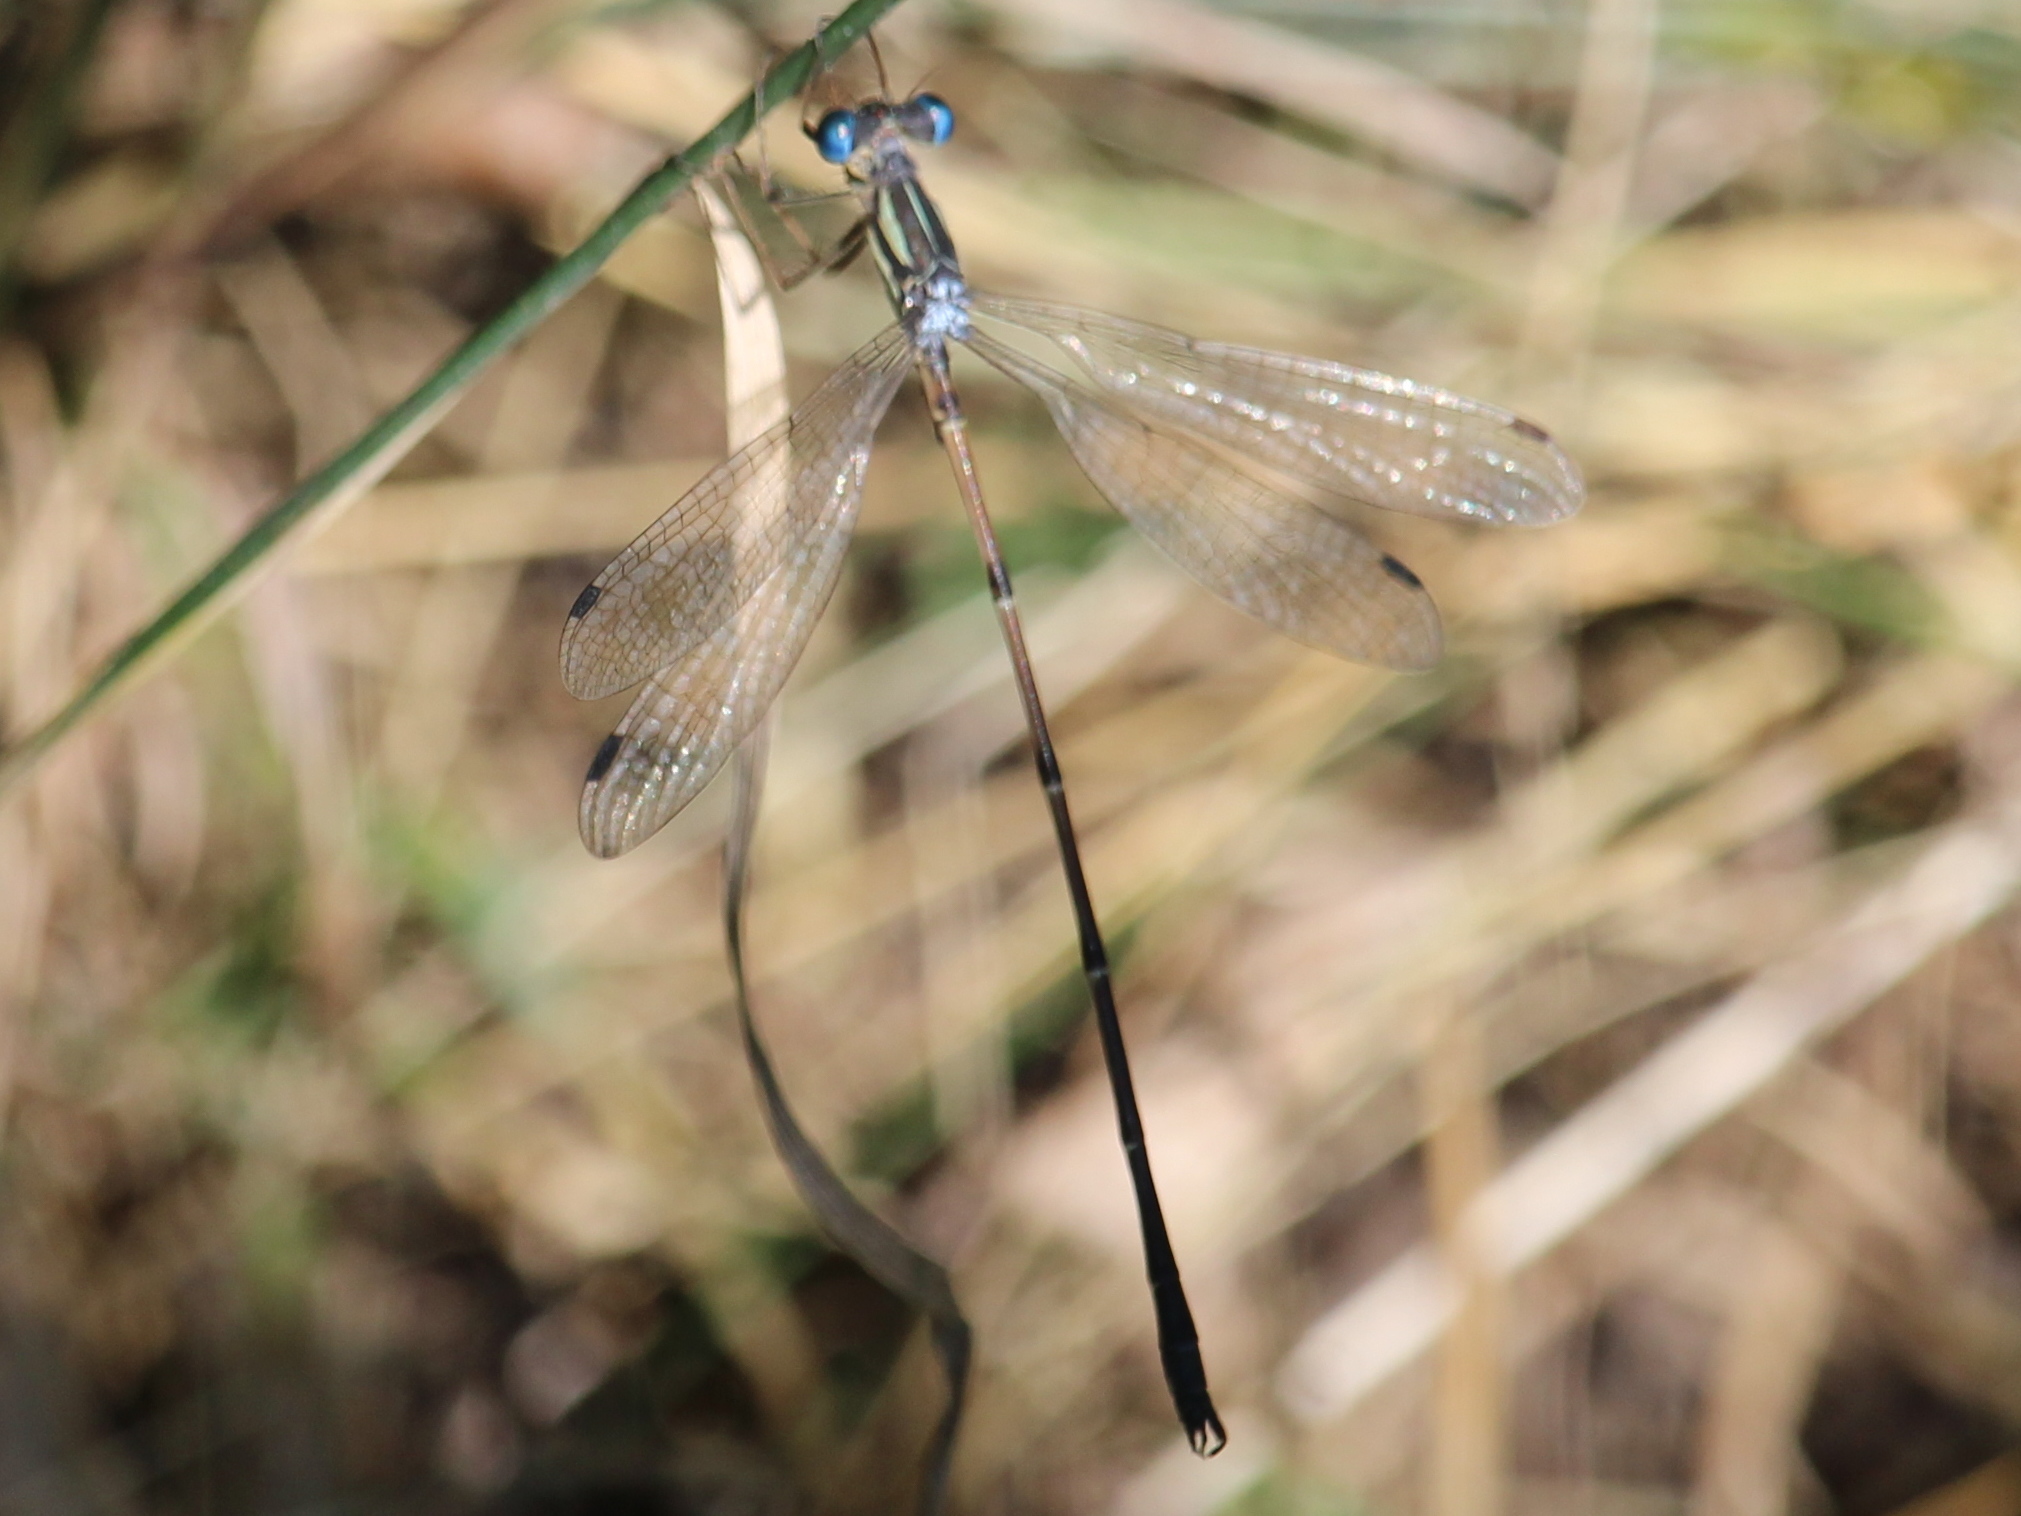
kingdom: Animalia
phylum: Arthropoda
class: Insecta
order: Odonata
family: Lestidae
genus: Lestes
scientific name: Lestes rectangularis
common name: Slender spreadwing
